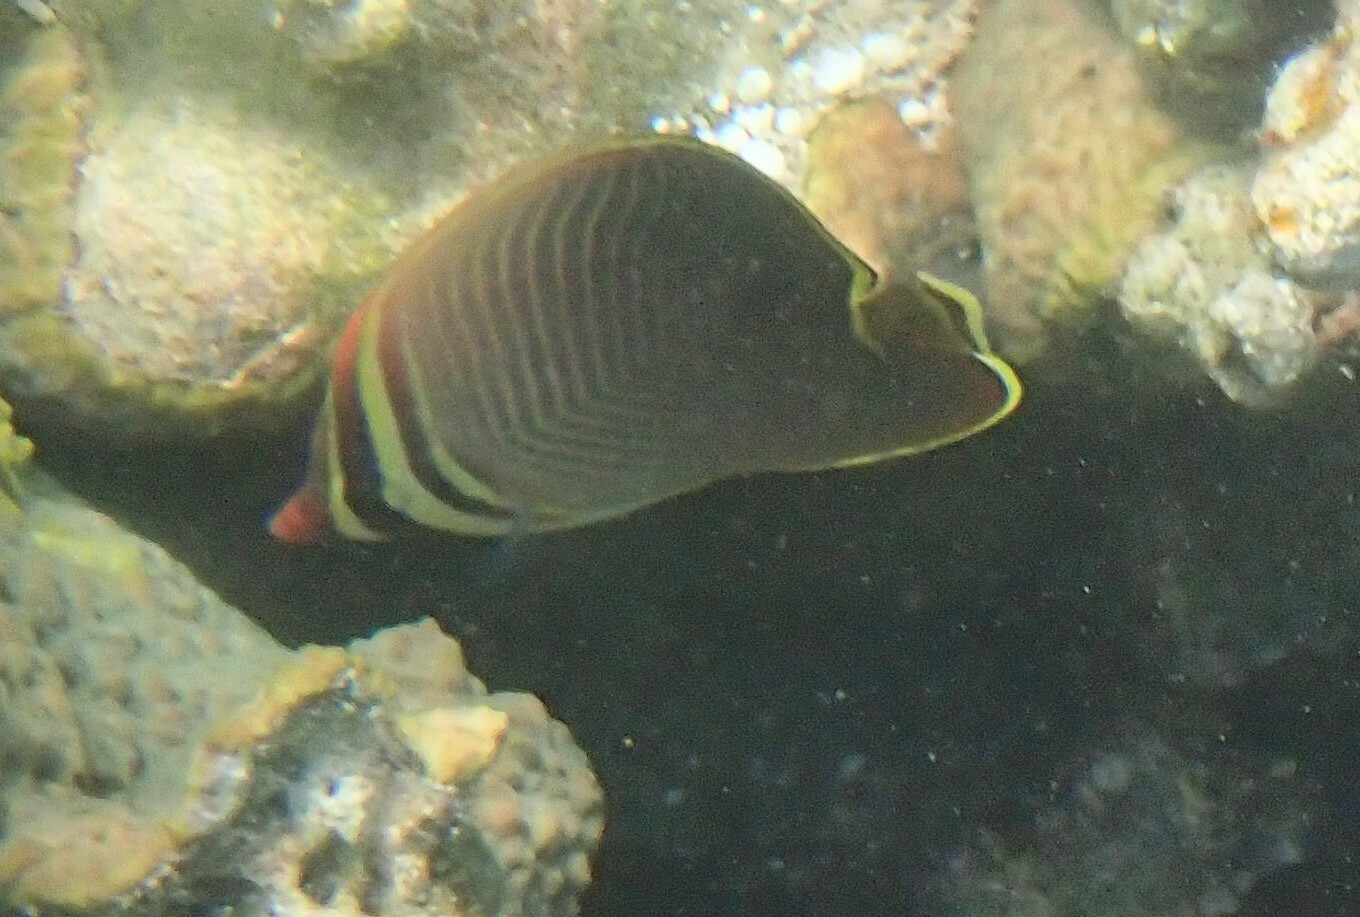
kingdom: Animalia
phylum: Chordata
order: Perciformes
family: Chaetodontidae
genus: Chaetodon
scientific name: Chaetodon baronessa
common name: Triangular butterflyfish
